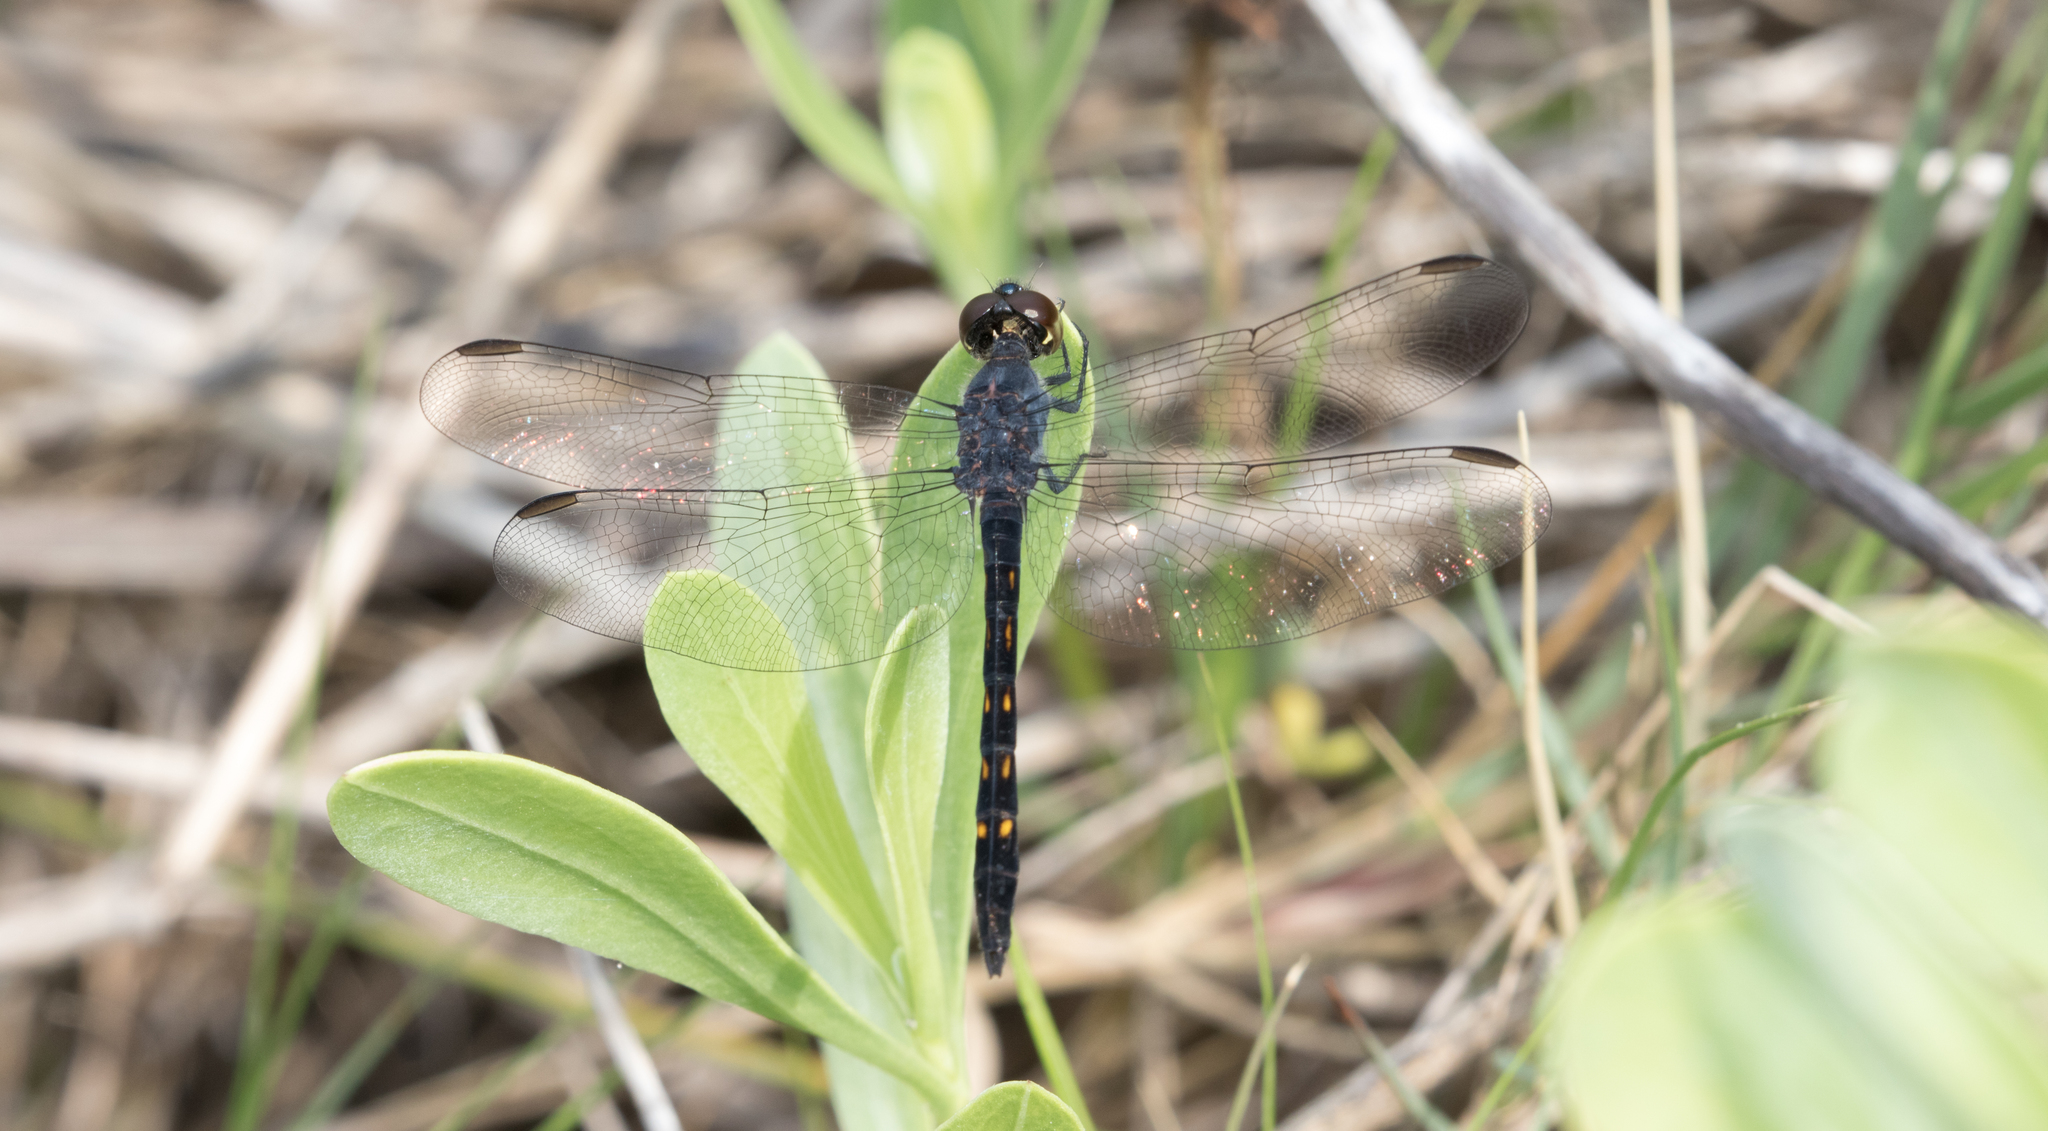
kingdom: Animalia
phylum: Arthropoda
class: Insecta
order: Odonata
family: Libellulidae
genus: Erythrodiplax
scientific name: Erythrodiplax berenice
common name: Seaside dragonlet
